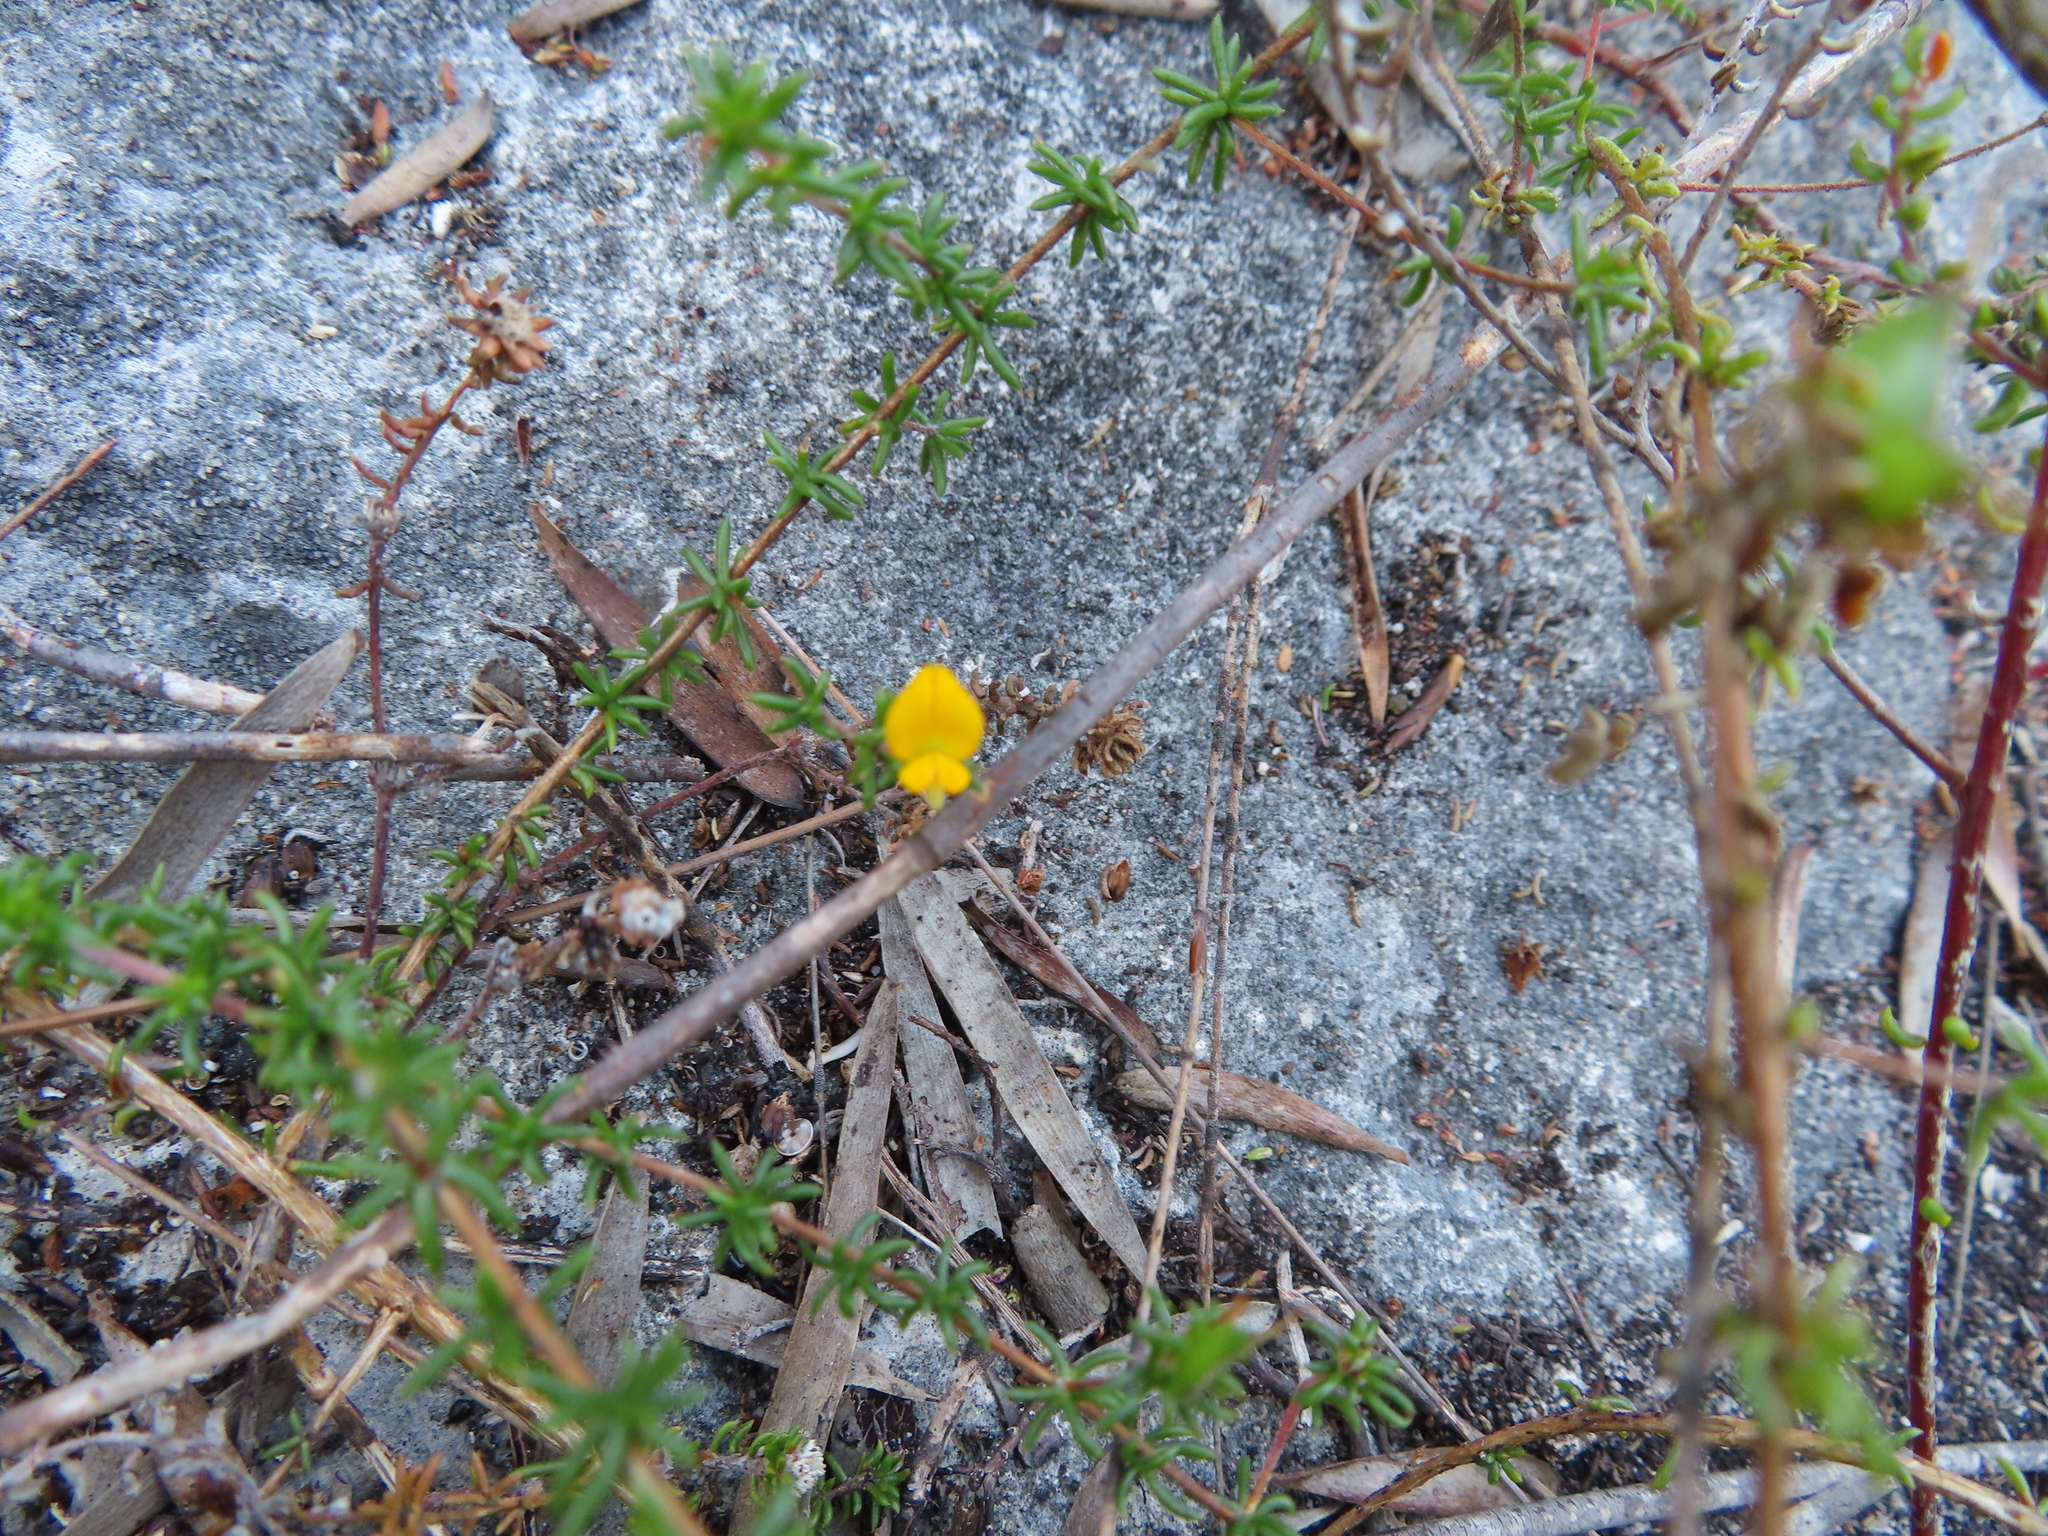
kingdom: Plantae
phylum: Tracheophyta
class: Magnoliopsida
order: Fabales
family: Fabaceae
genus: Aspalathus
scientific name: Aspalathus crassisepala
